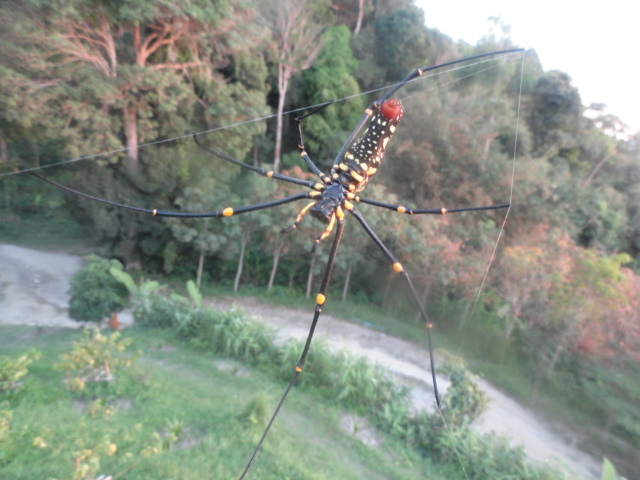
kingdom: Animalia
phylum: Arthropoda
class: Arachnida
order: Araneae
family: Araneidae
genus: Nephila
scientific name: Nephila pilipes
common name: Giant golden orb weaver
